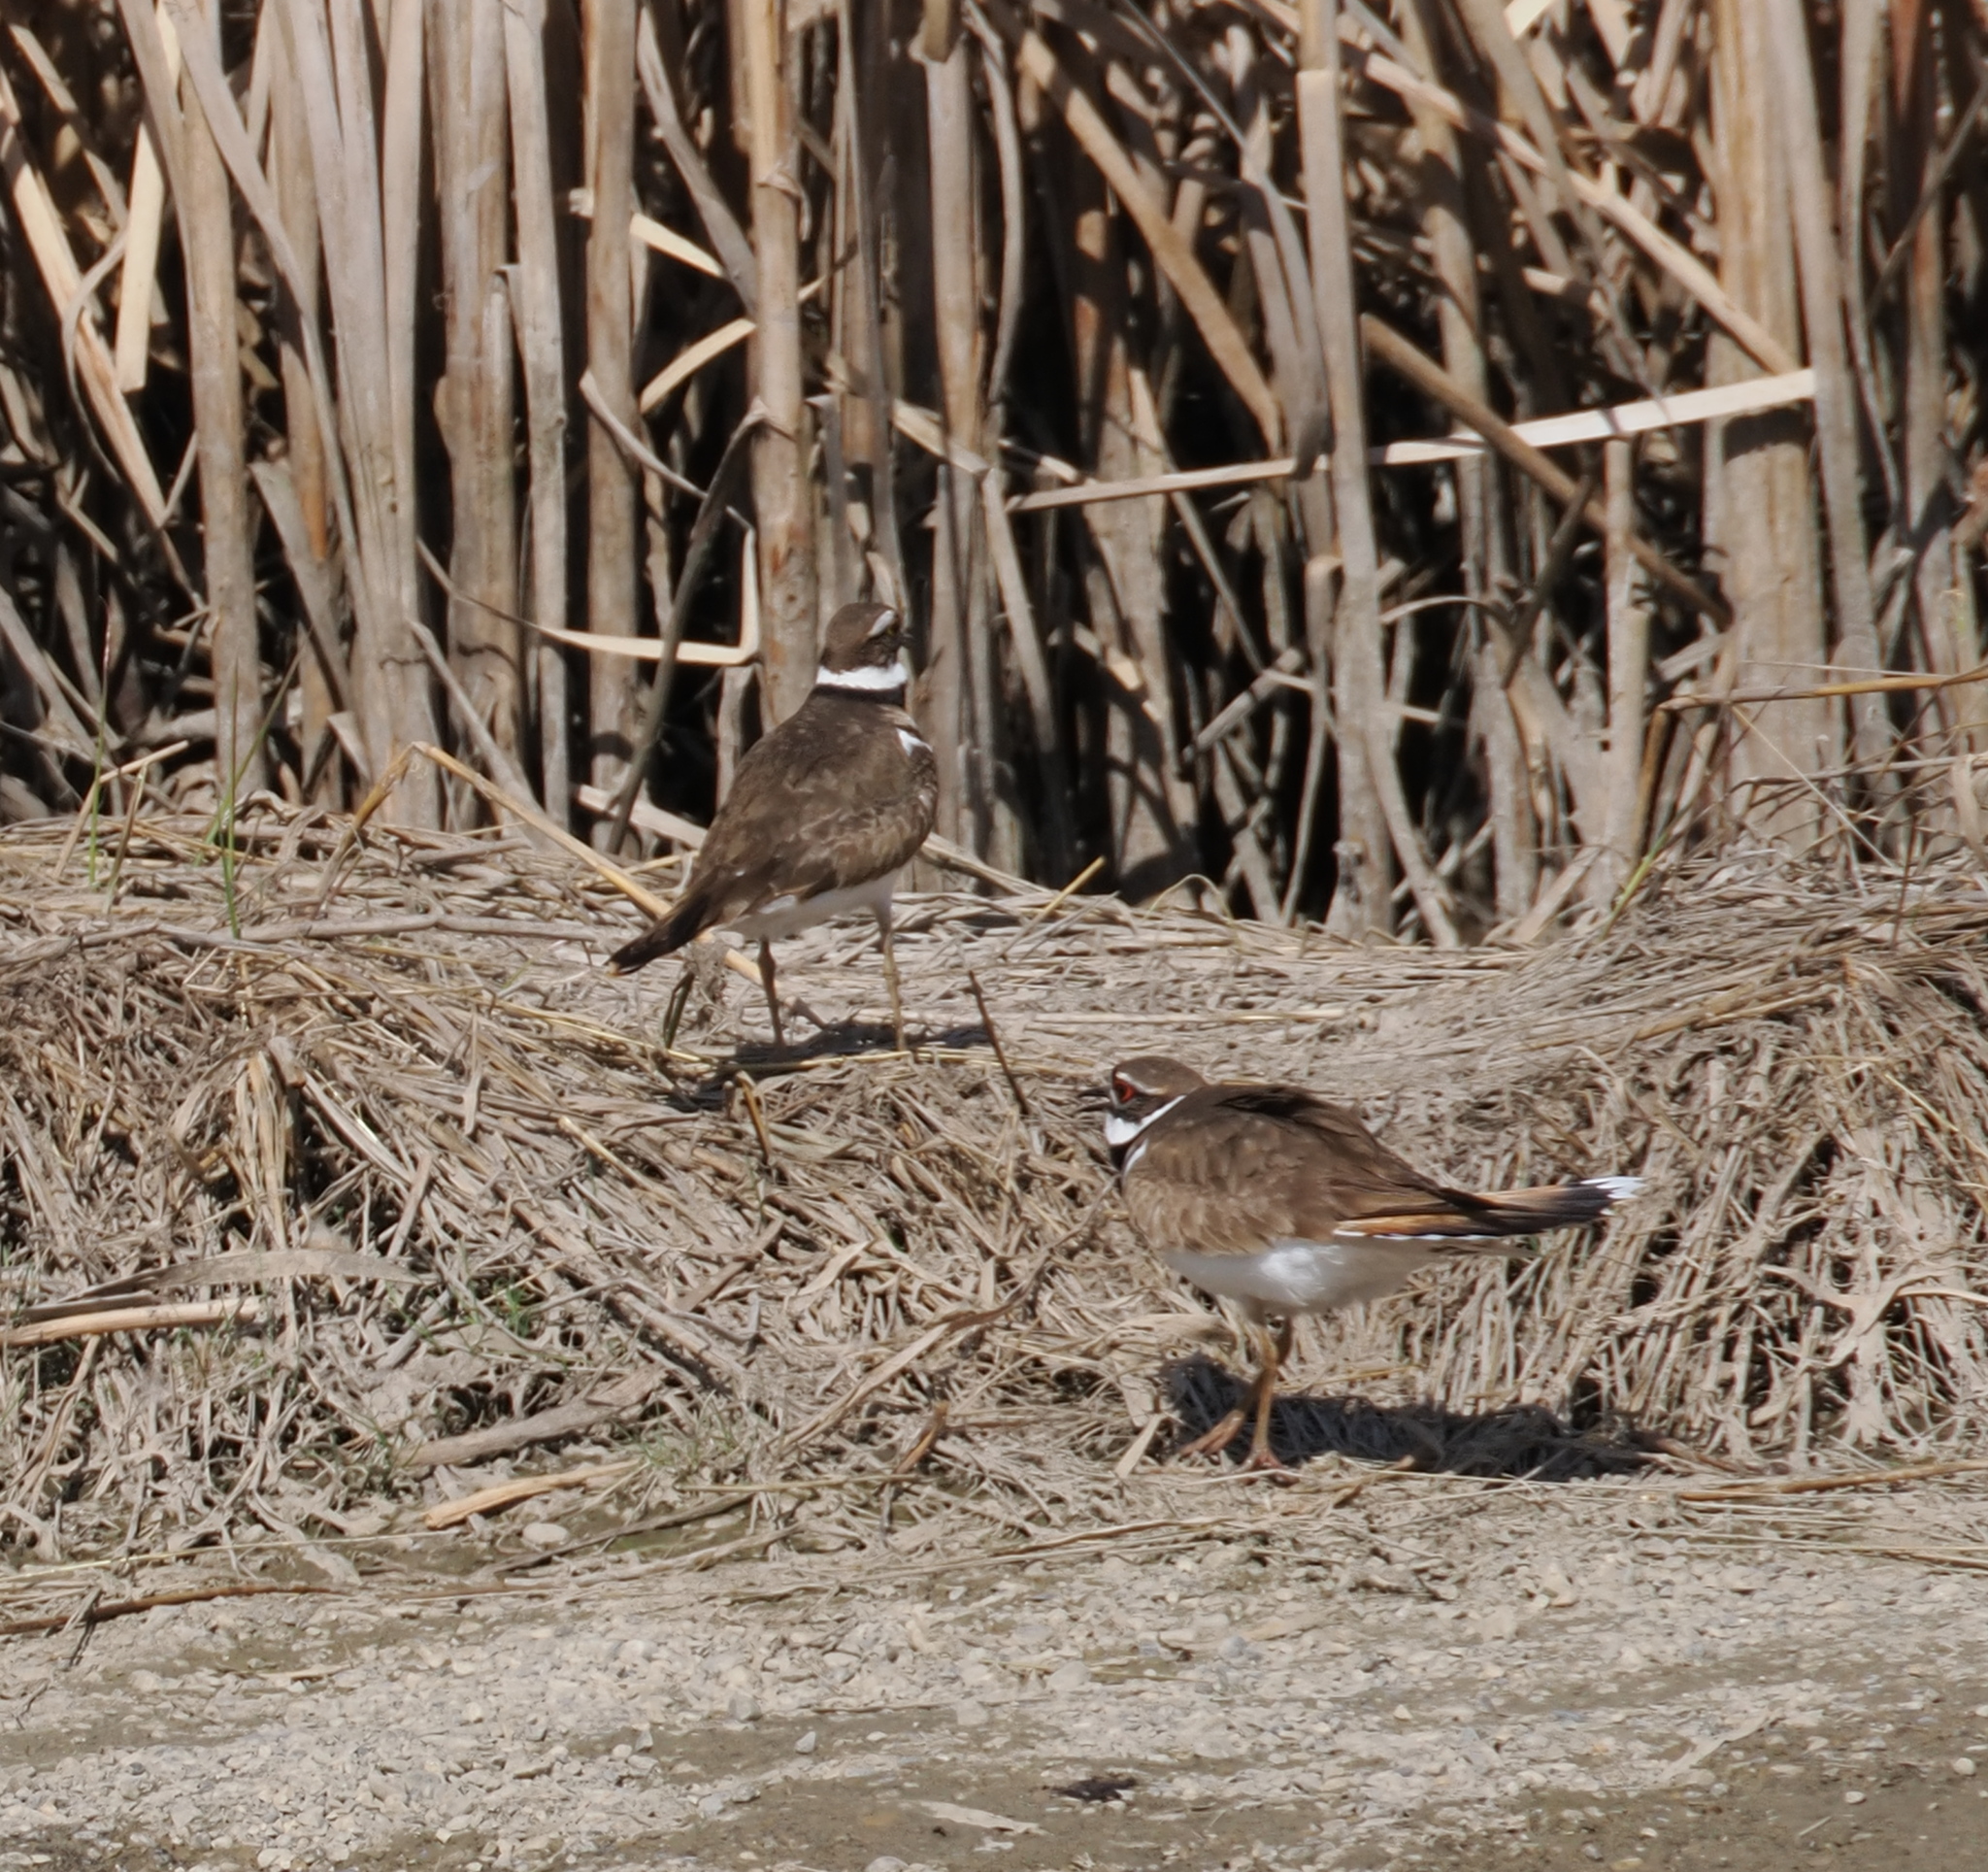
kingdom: Animalia
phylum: Chordata
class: Aves
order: Charadriiformes
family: Charadriidae
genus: Charadrius
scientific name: Charadrius vociferus
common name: Killdeer
